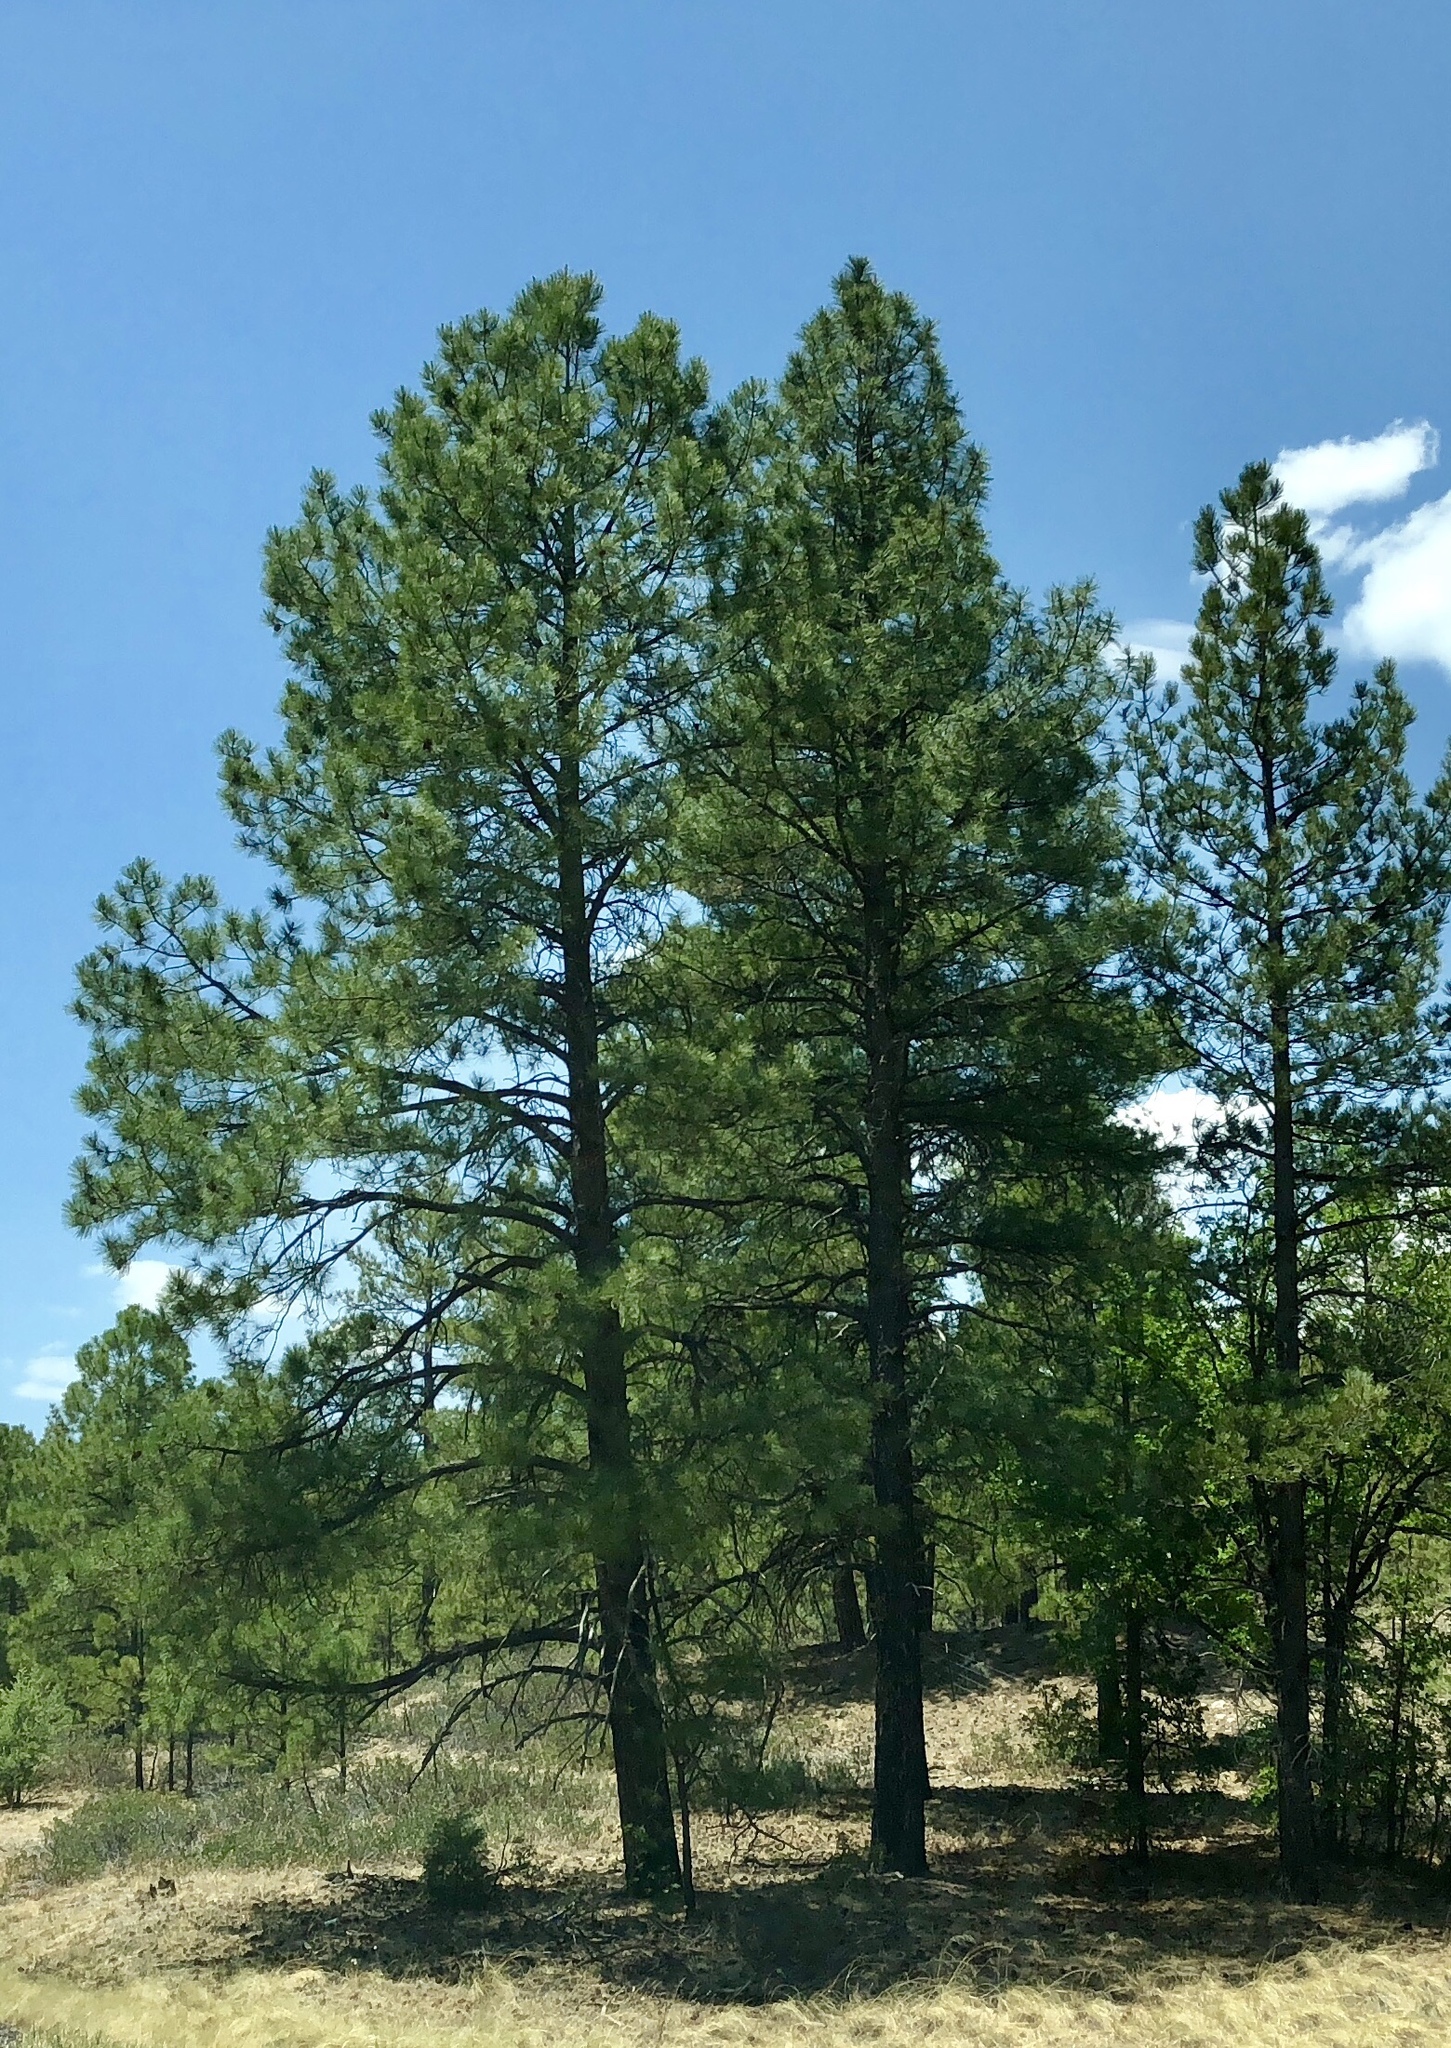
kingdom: Plantae
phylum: Tracheophyta
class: Pinopsida
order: Pinales
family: Pinaceae
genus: Pinus
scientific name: Pinus ponderosa
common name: Western yellow-pine
